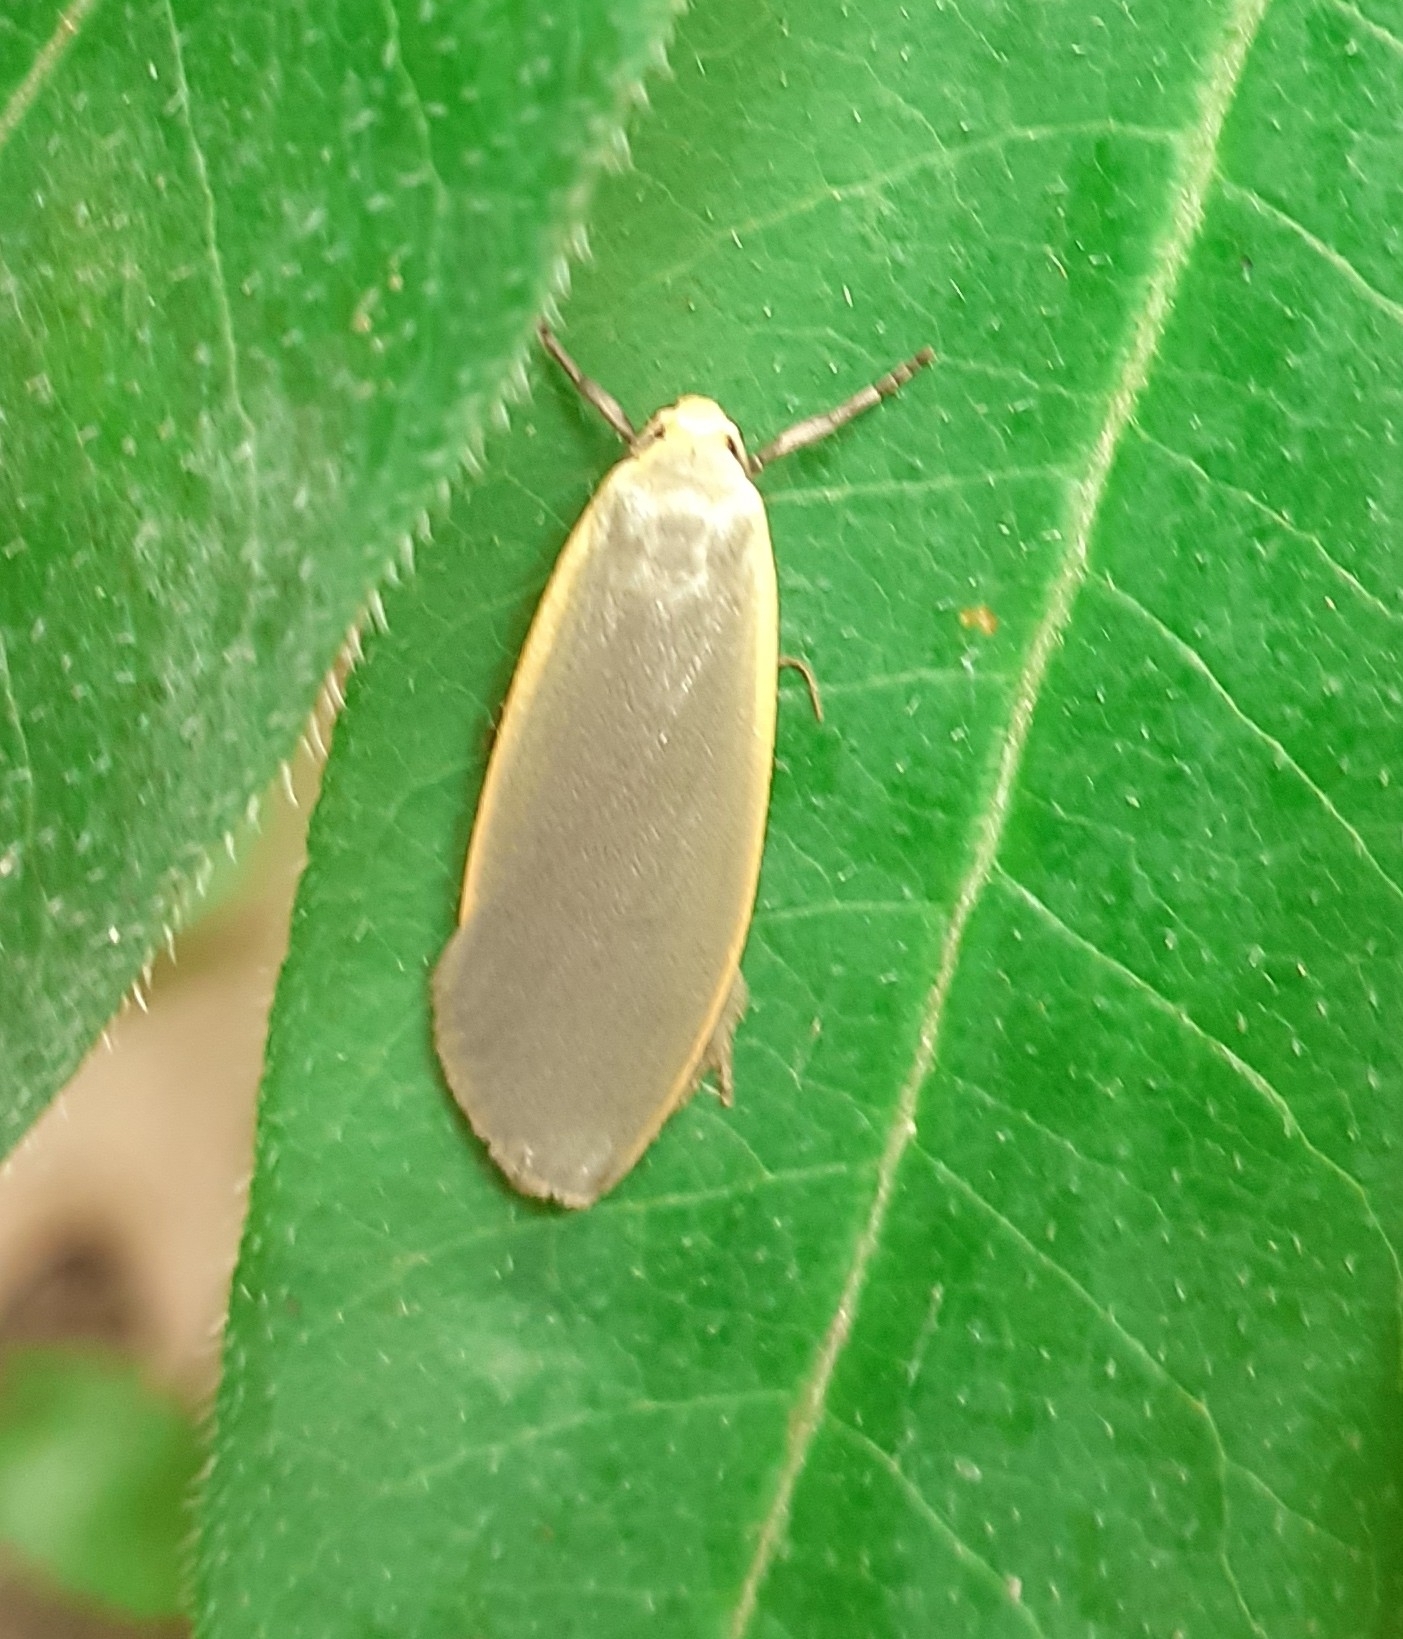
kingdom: Animalia
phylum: Arthropoda
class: Insecta
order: Lepidoptera
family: Erebidae
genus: Collita
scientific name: Collita griseola
